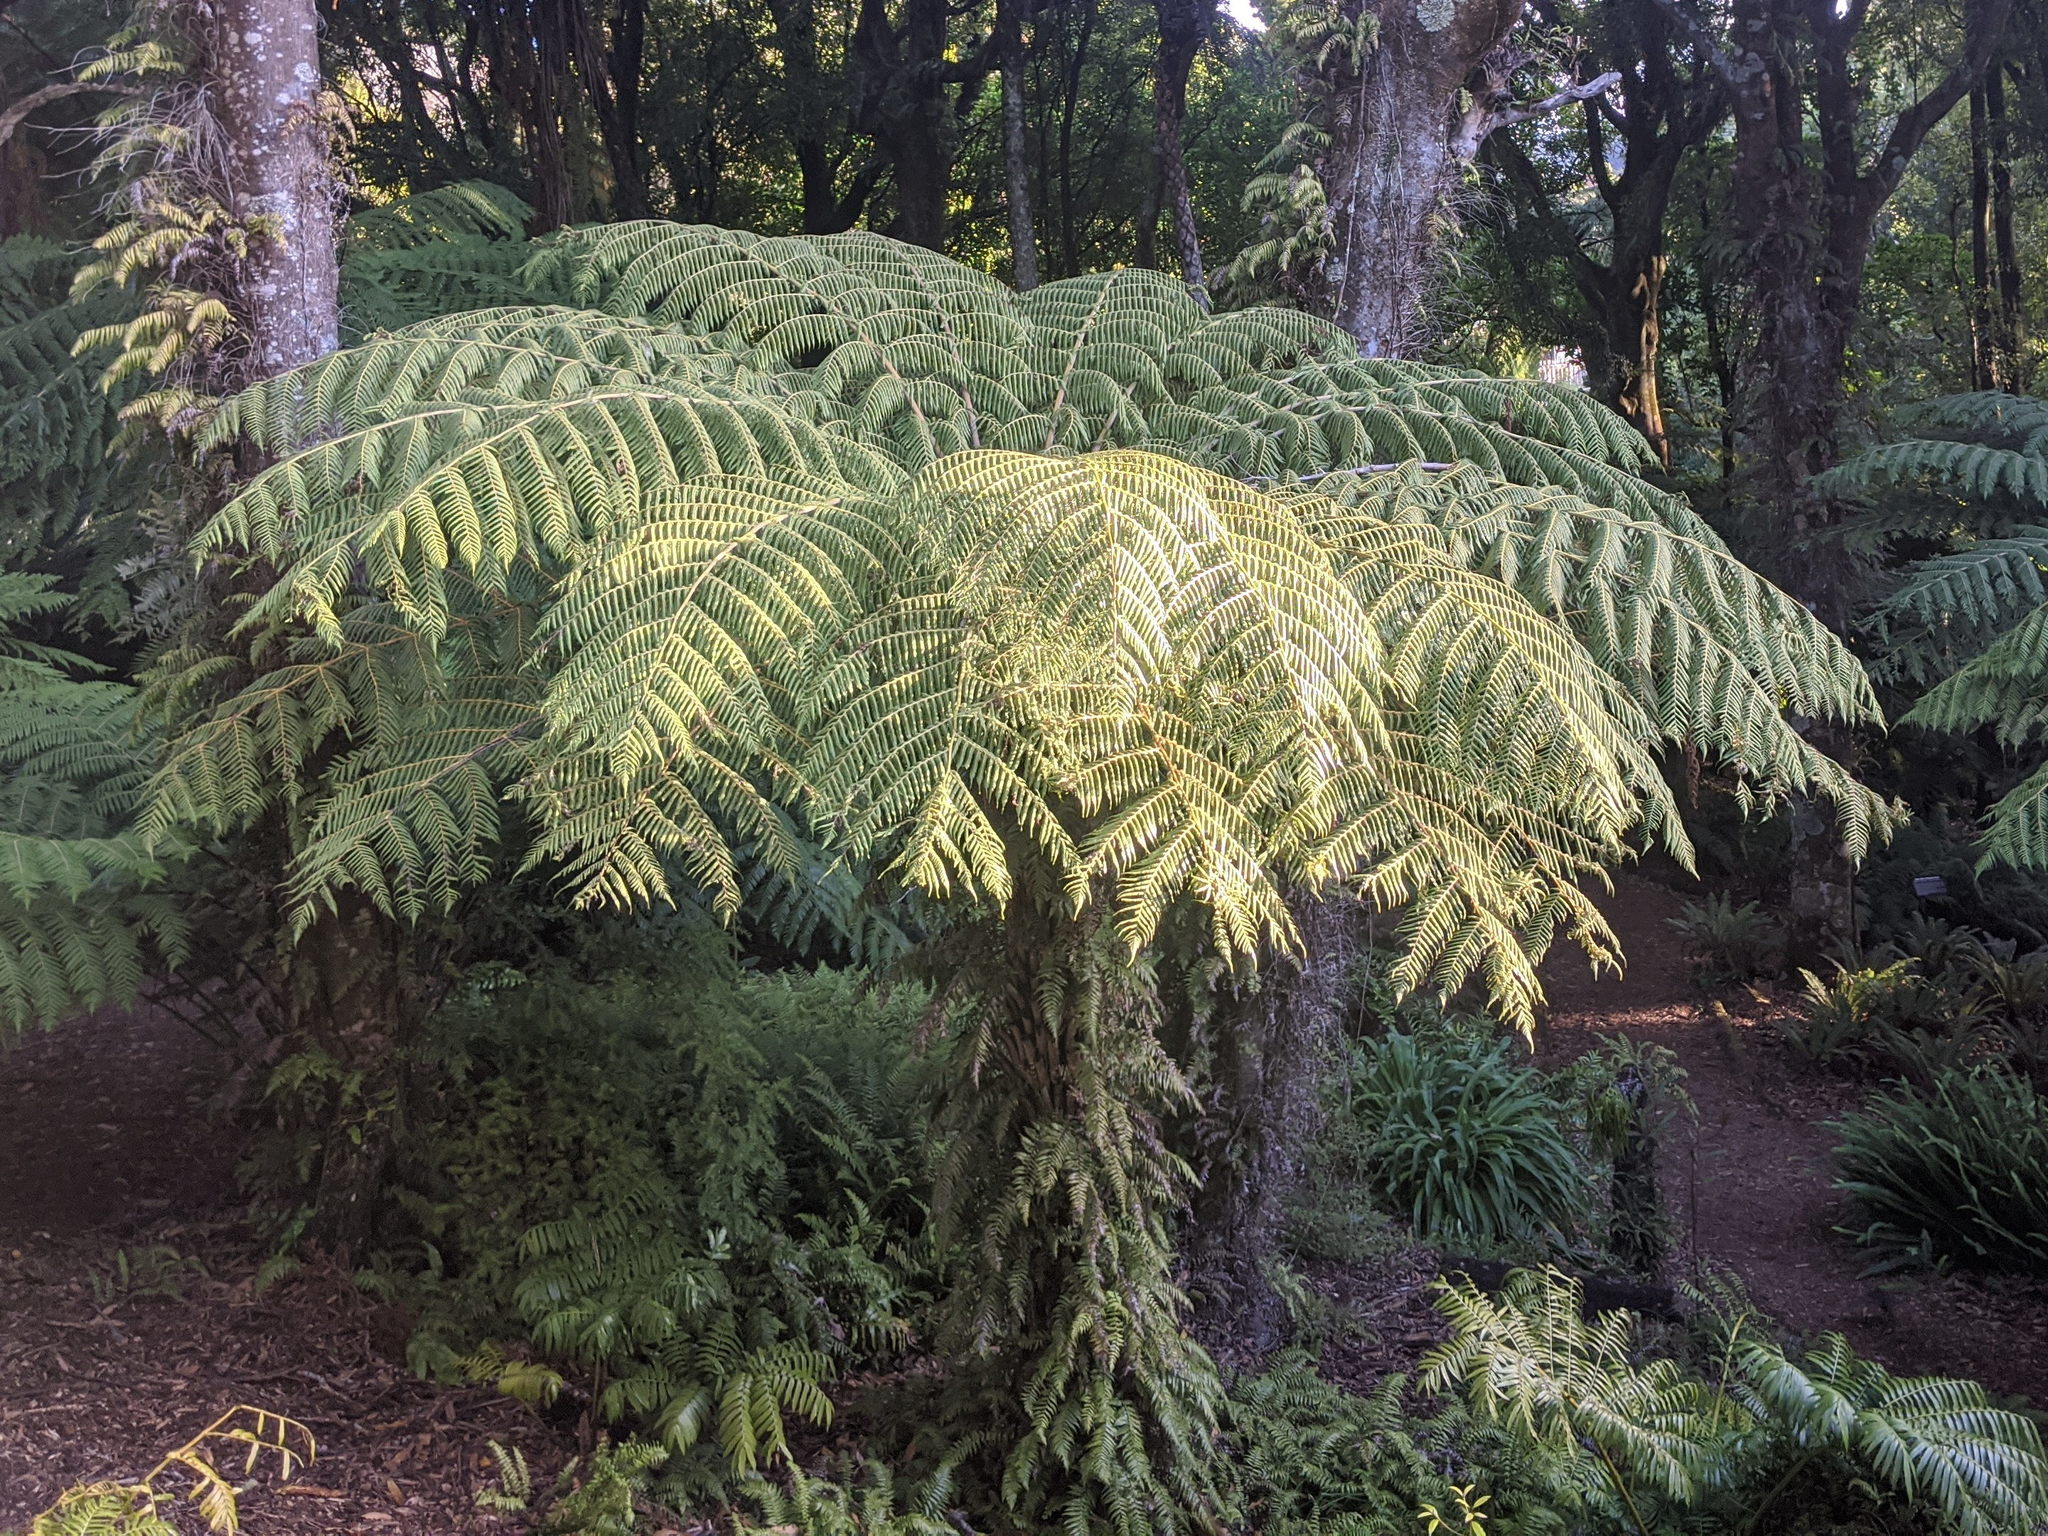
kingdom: Plantae
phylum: Tracheophyta
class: Polypodiopsida
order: Cyatheales
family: Cyatheaceae
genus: Alsophila
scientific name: Alsophila dealbata
